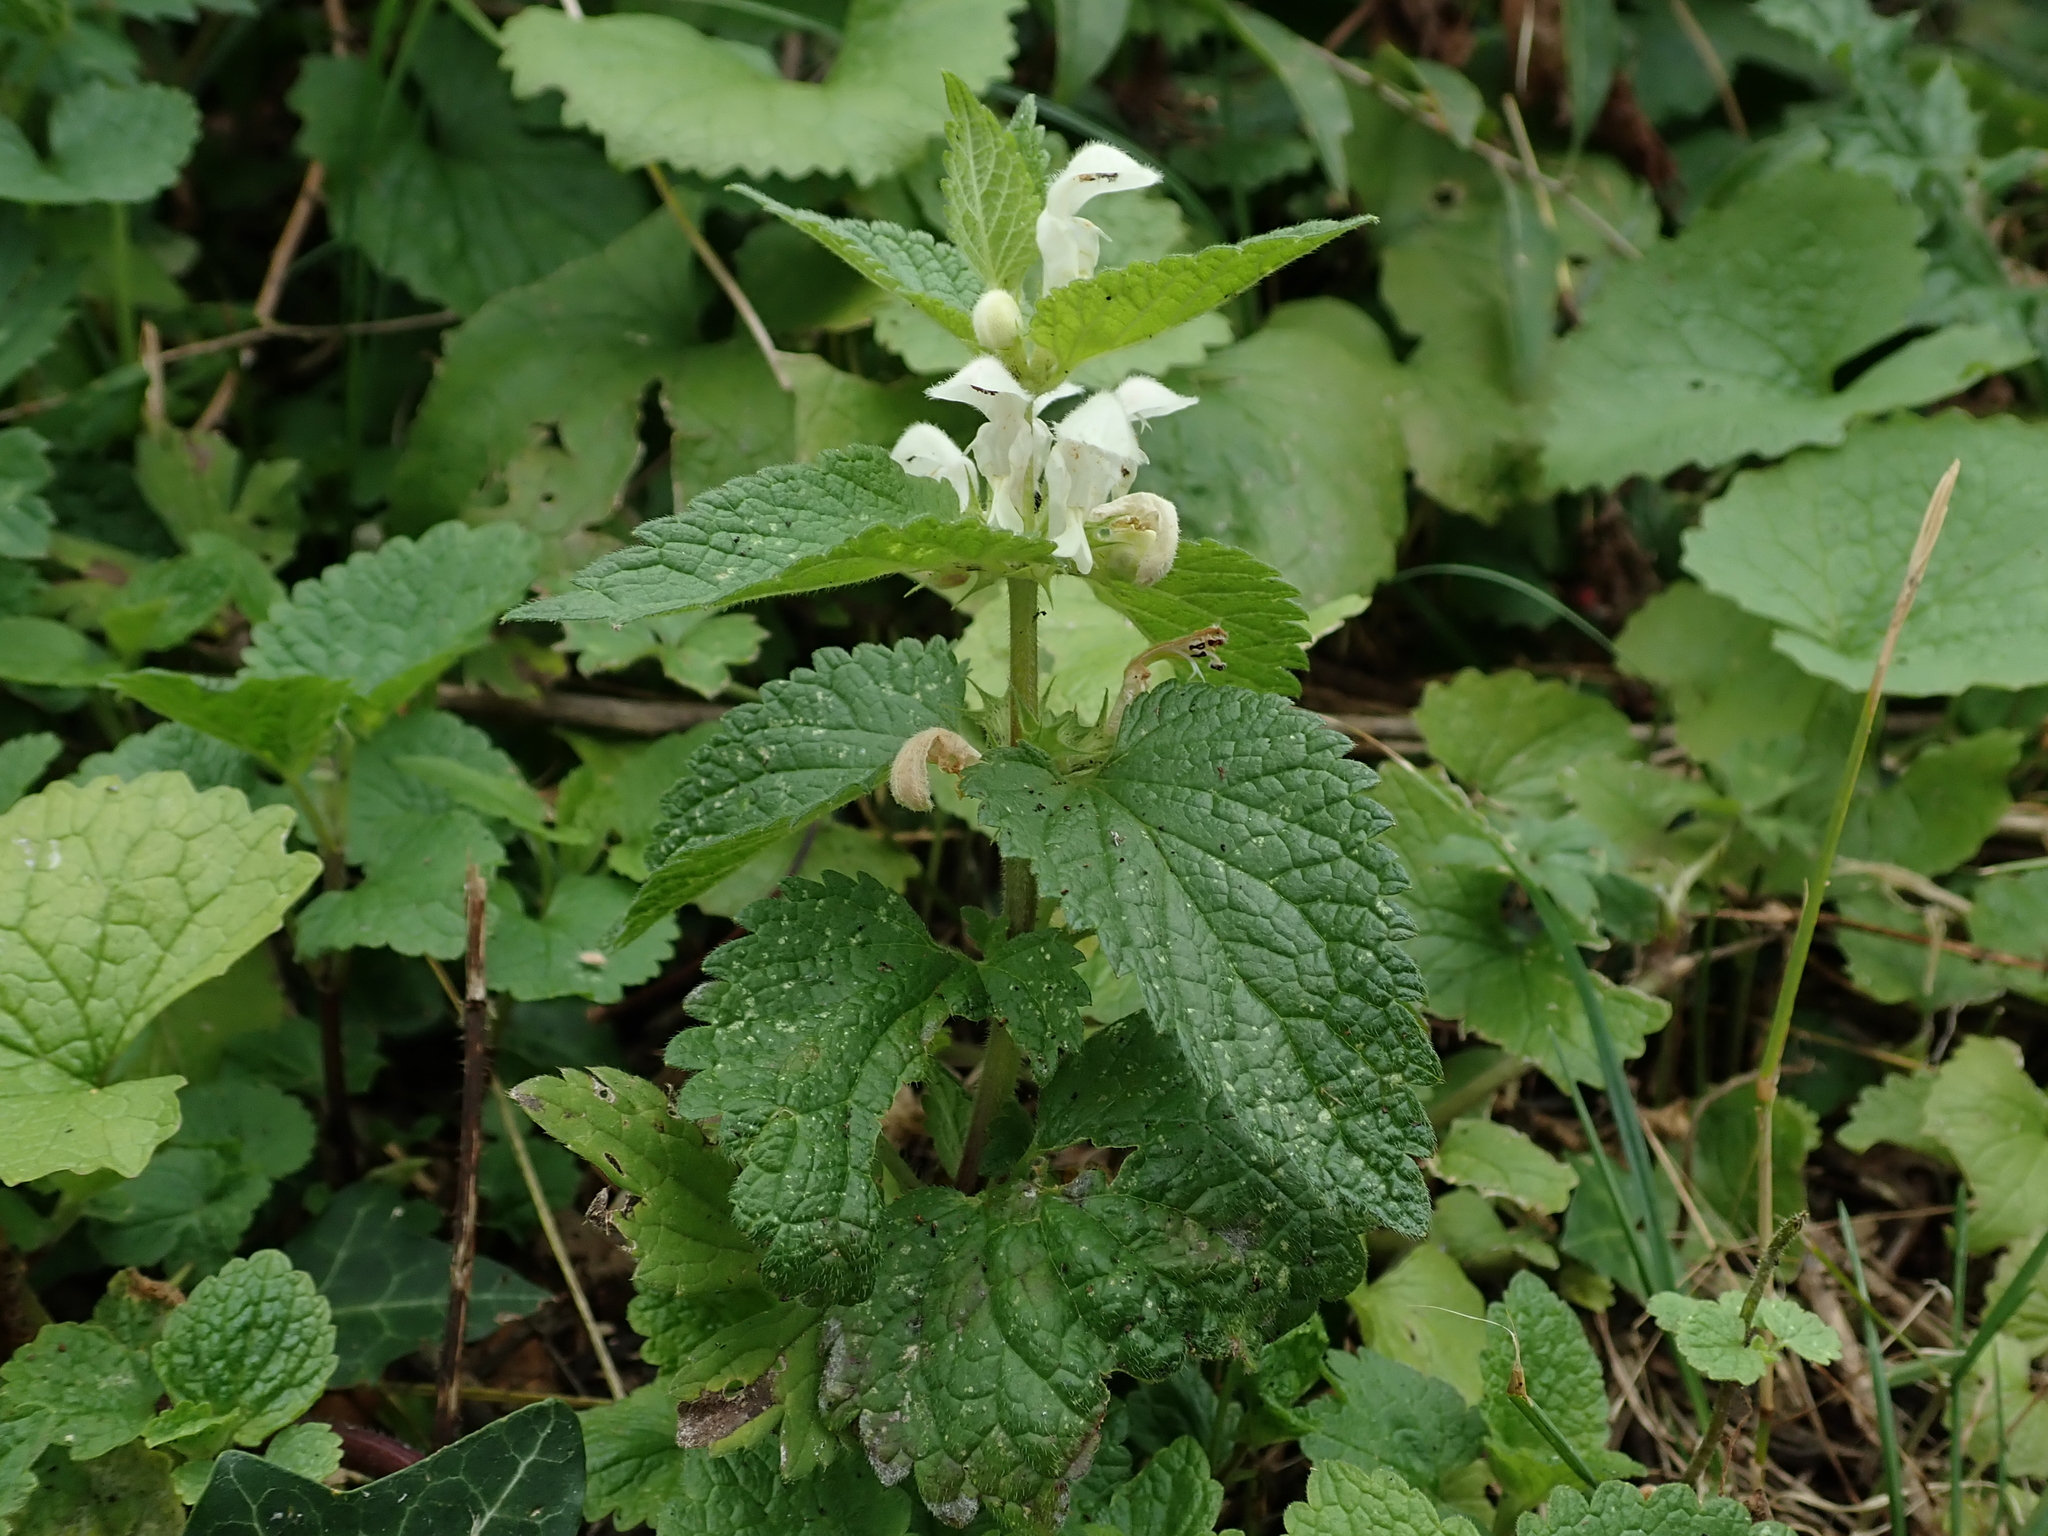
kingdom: Plantae
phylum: Tracheophyta
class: Magnoliopsida
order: Lamiales
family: Lamiaceae
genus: Lamium
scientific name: Lamium album
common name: White dead-nettle
